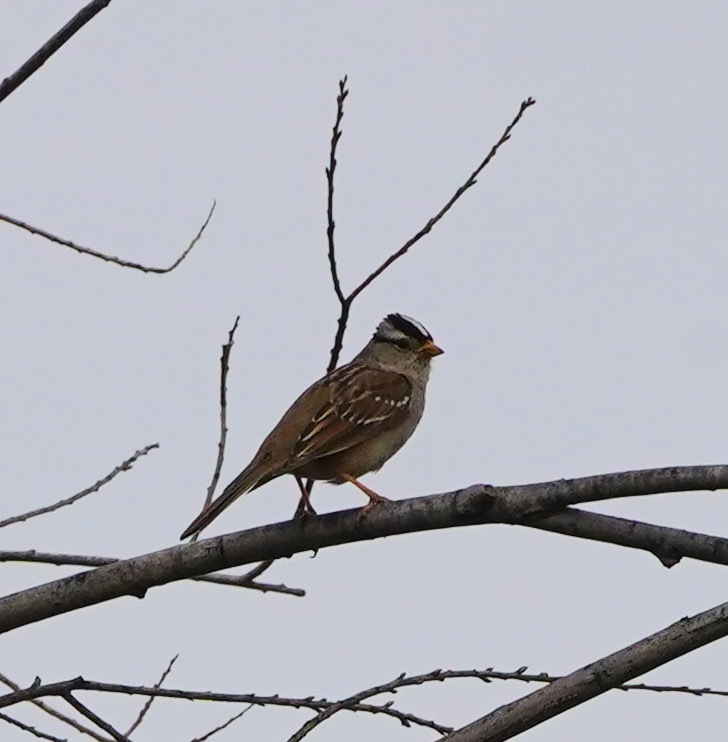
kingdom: Animalia
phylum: Chordata
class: Aves
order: Passeriformes
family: Passerellidae
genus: Zonotrichia
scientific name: Zonotrichia leucophrys
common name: White-crowned sparrow
